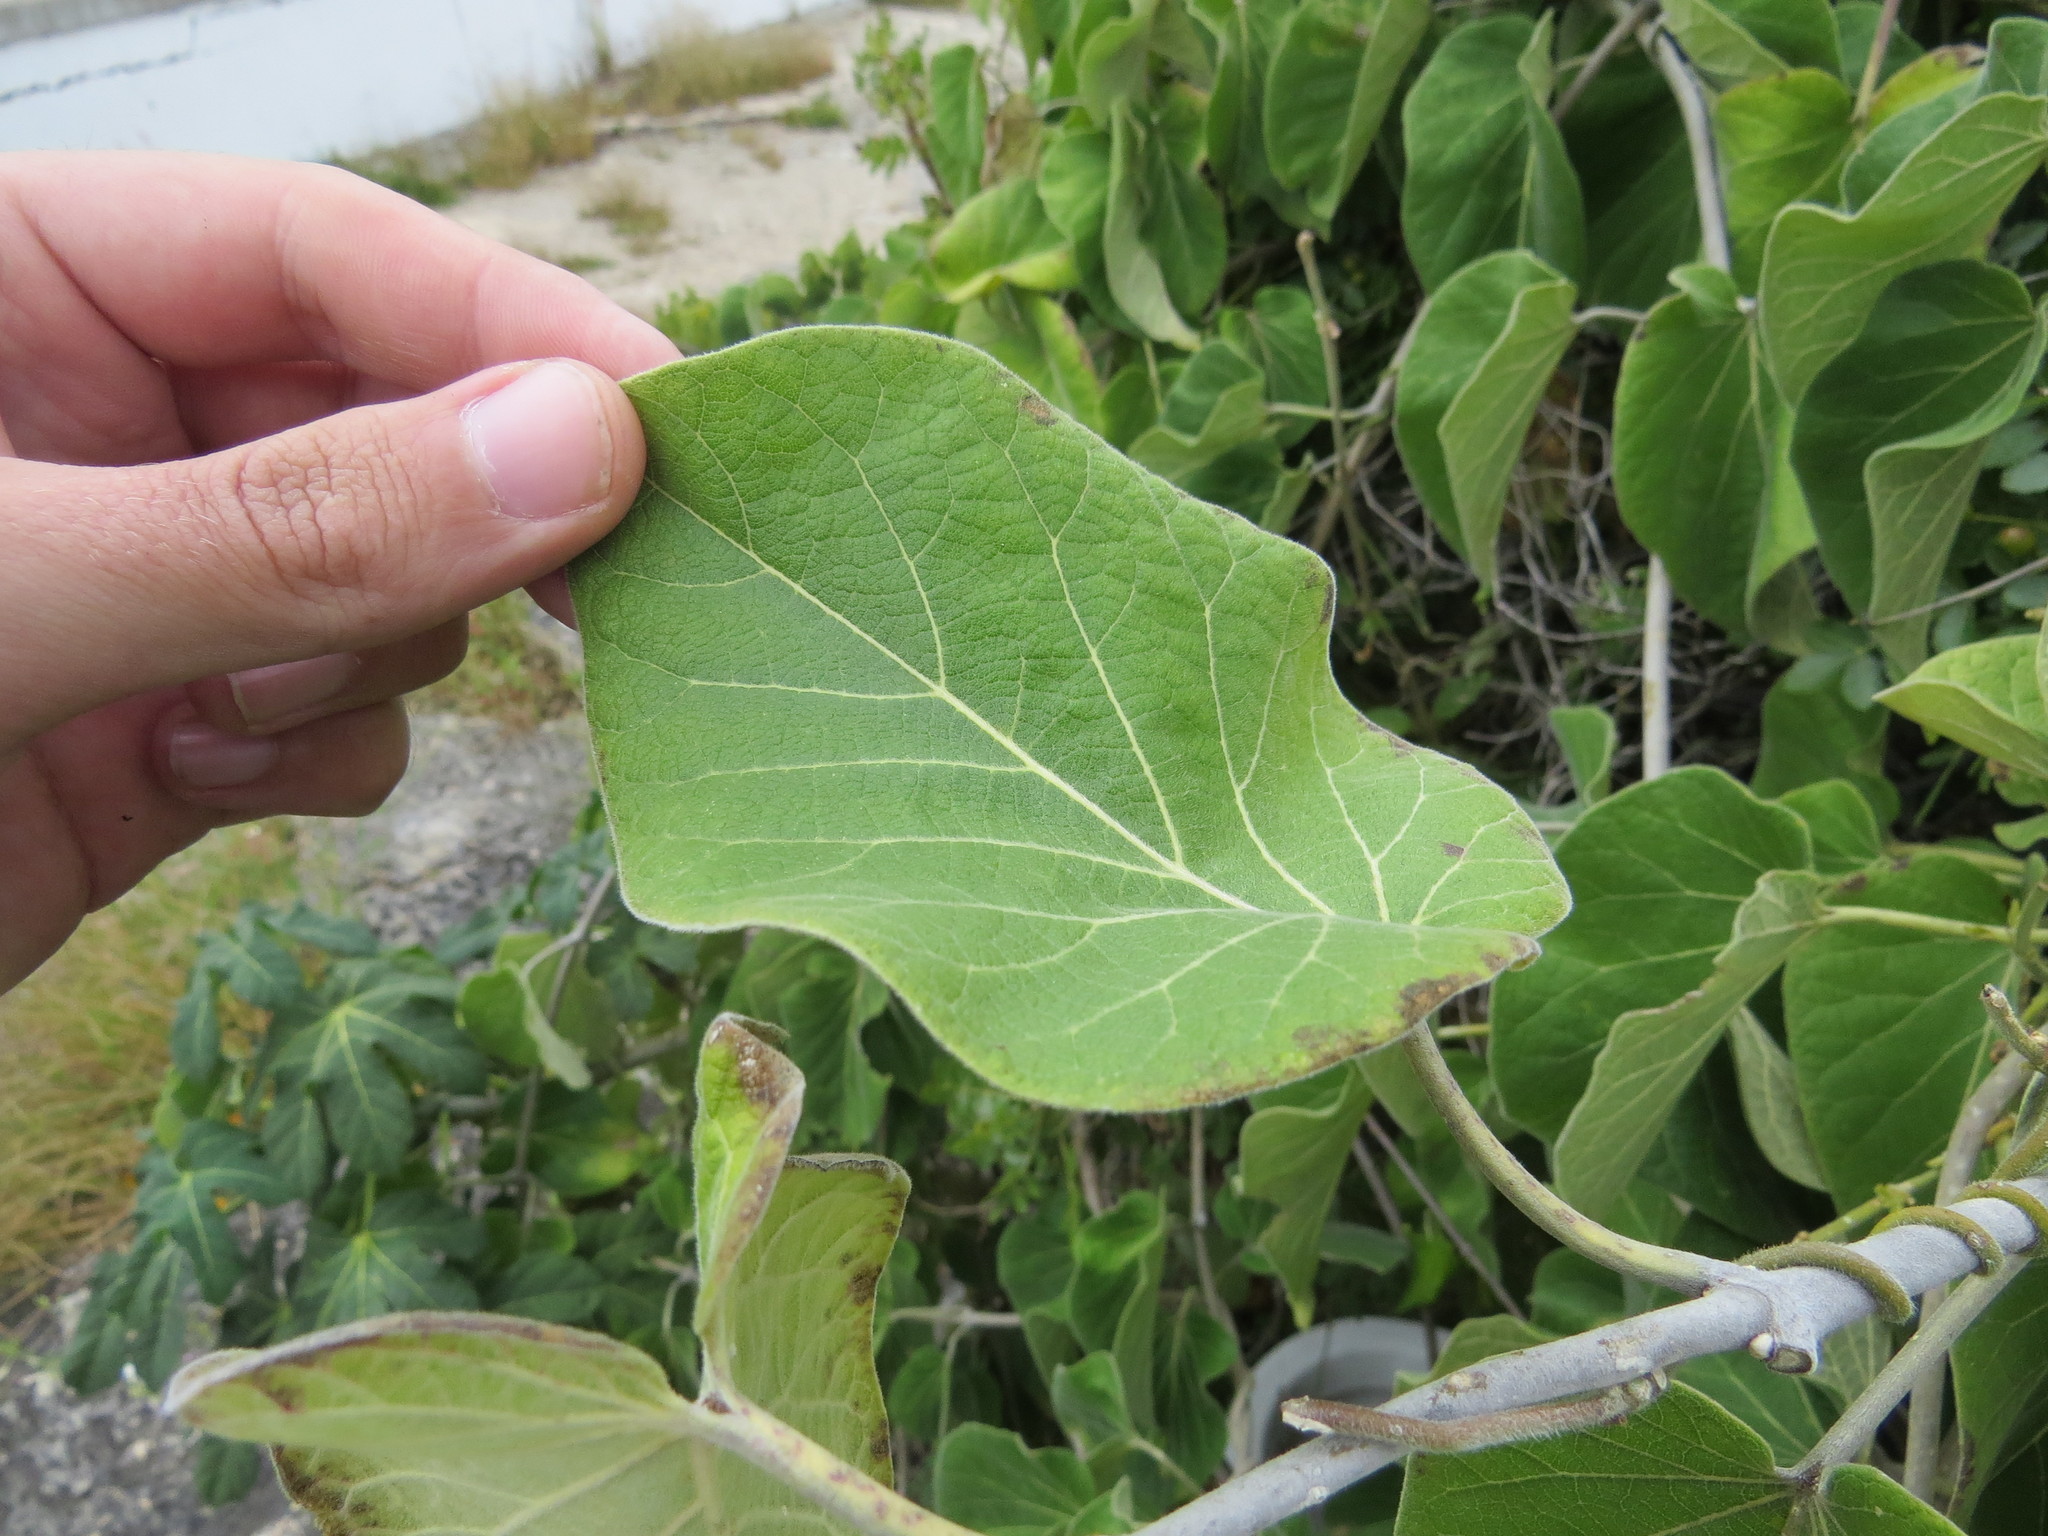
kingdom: Plantae
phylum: Tracheophyta
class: Magnoliopsida
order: Gentianales
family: Apocynaceae
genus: Ruehssia
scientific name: Ruehssia mexicana
